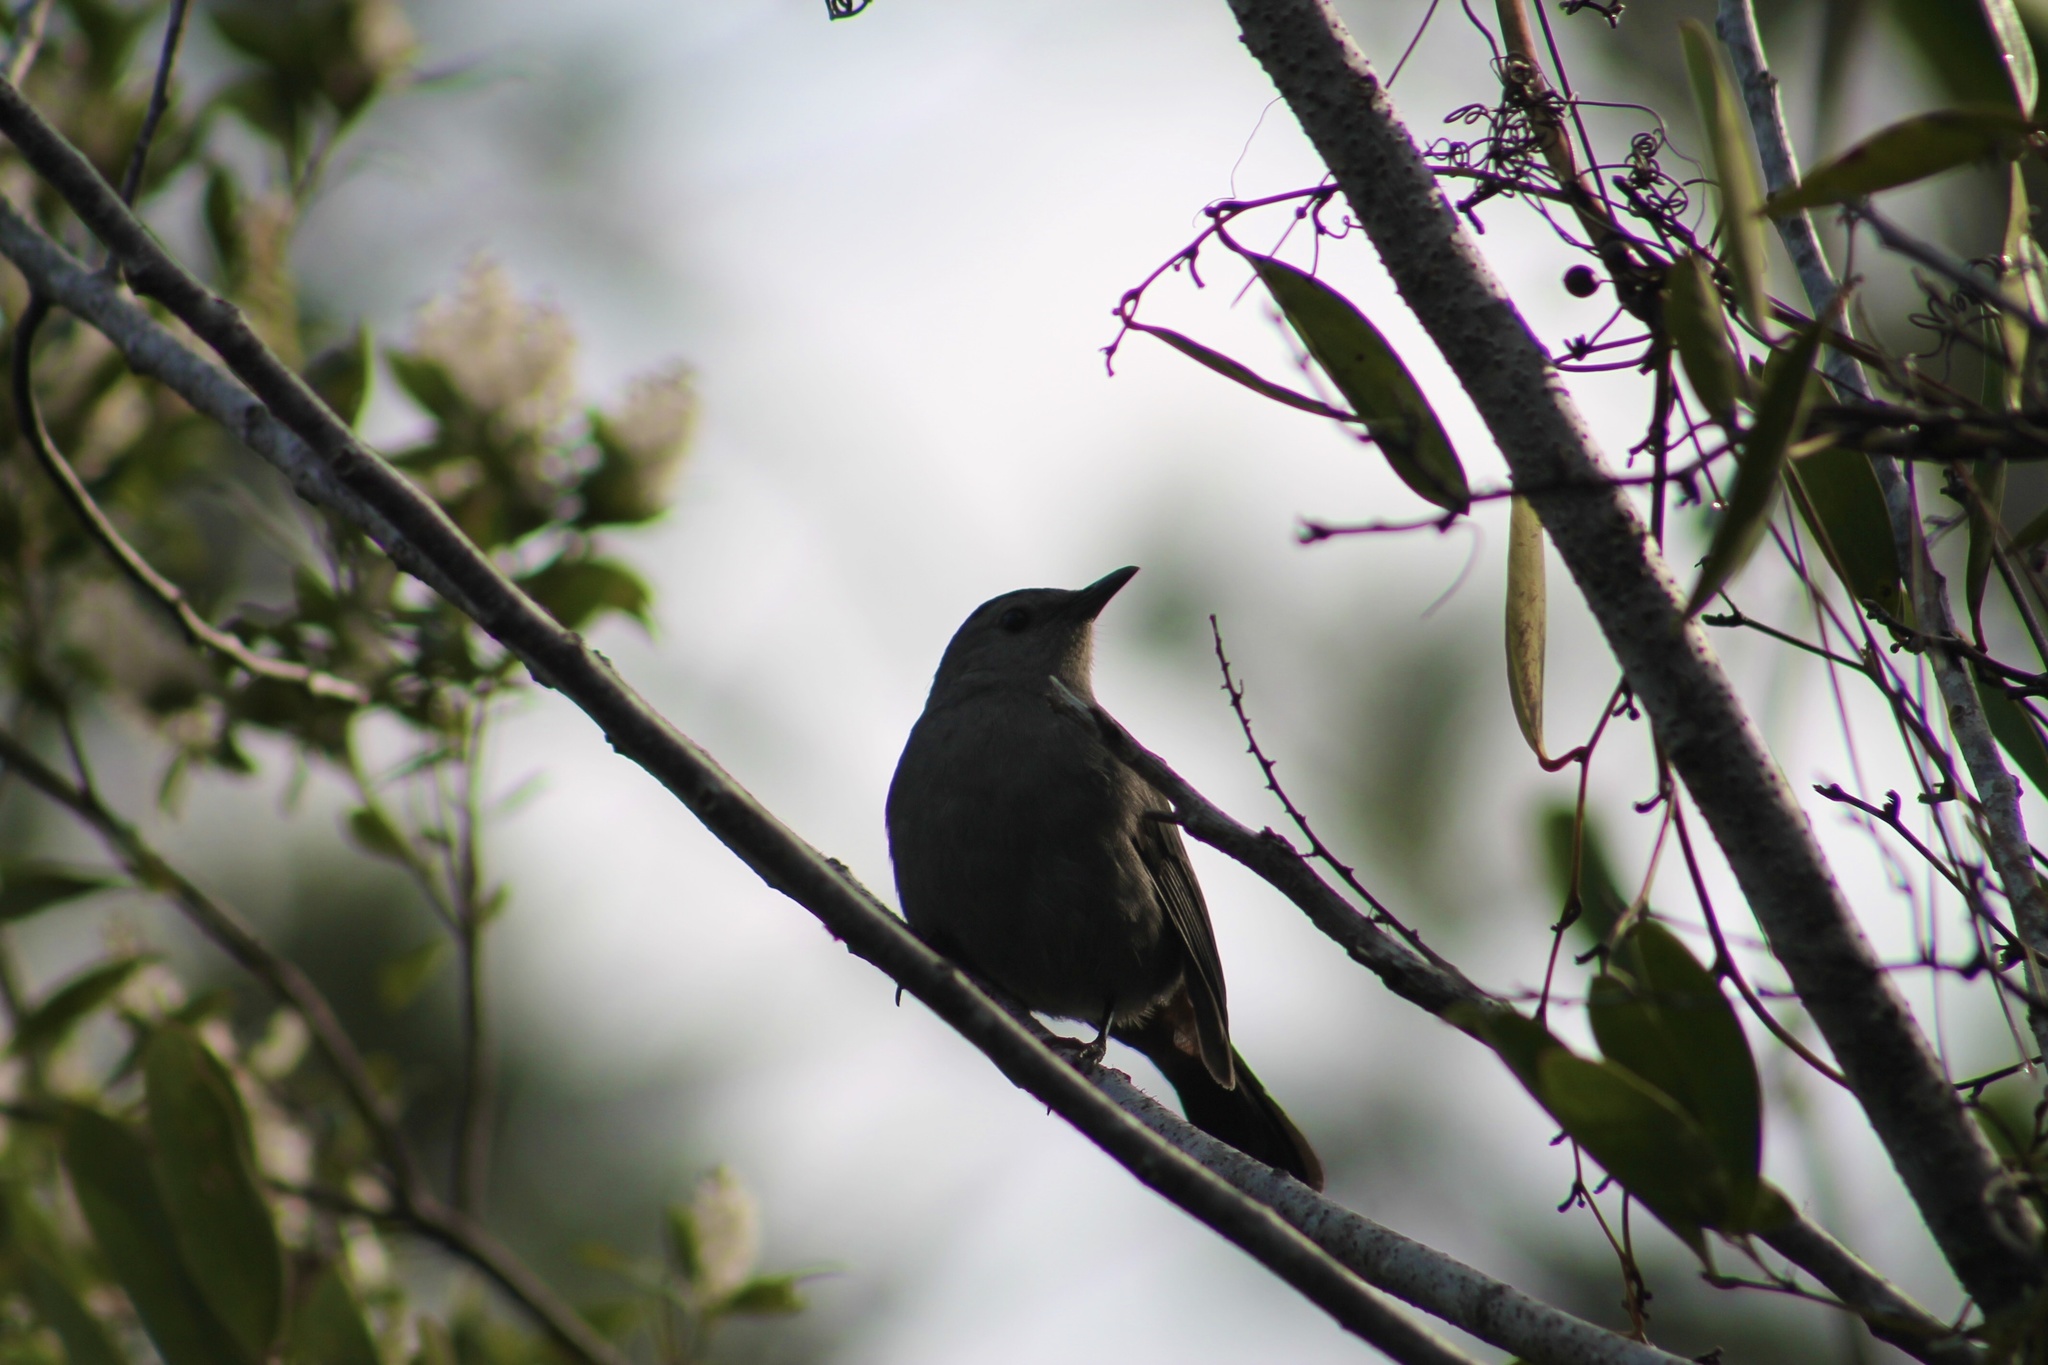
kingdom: Animalia
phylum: Chordata
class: Aves
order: Passeriformes
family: Mimidae
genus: Dumetella
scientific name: Dumetella carolinensis
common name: Gray catbird
